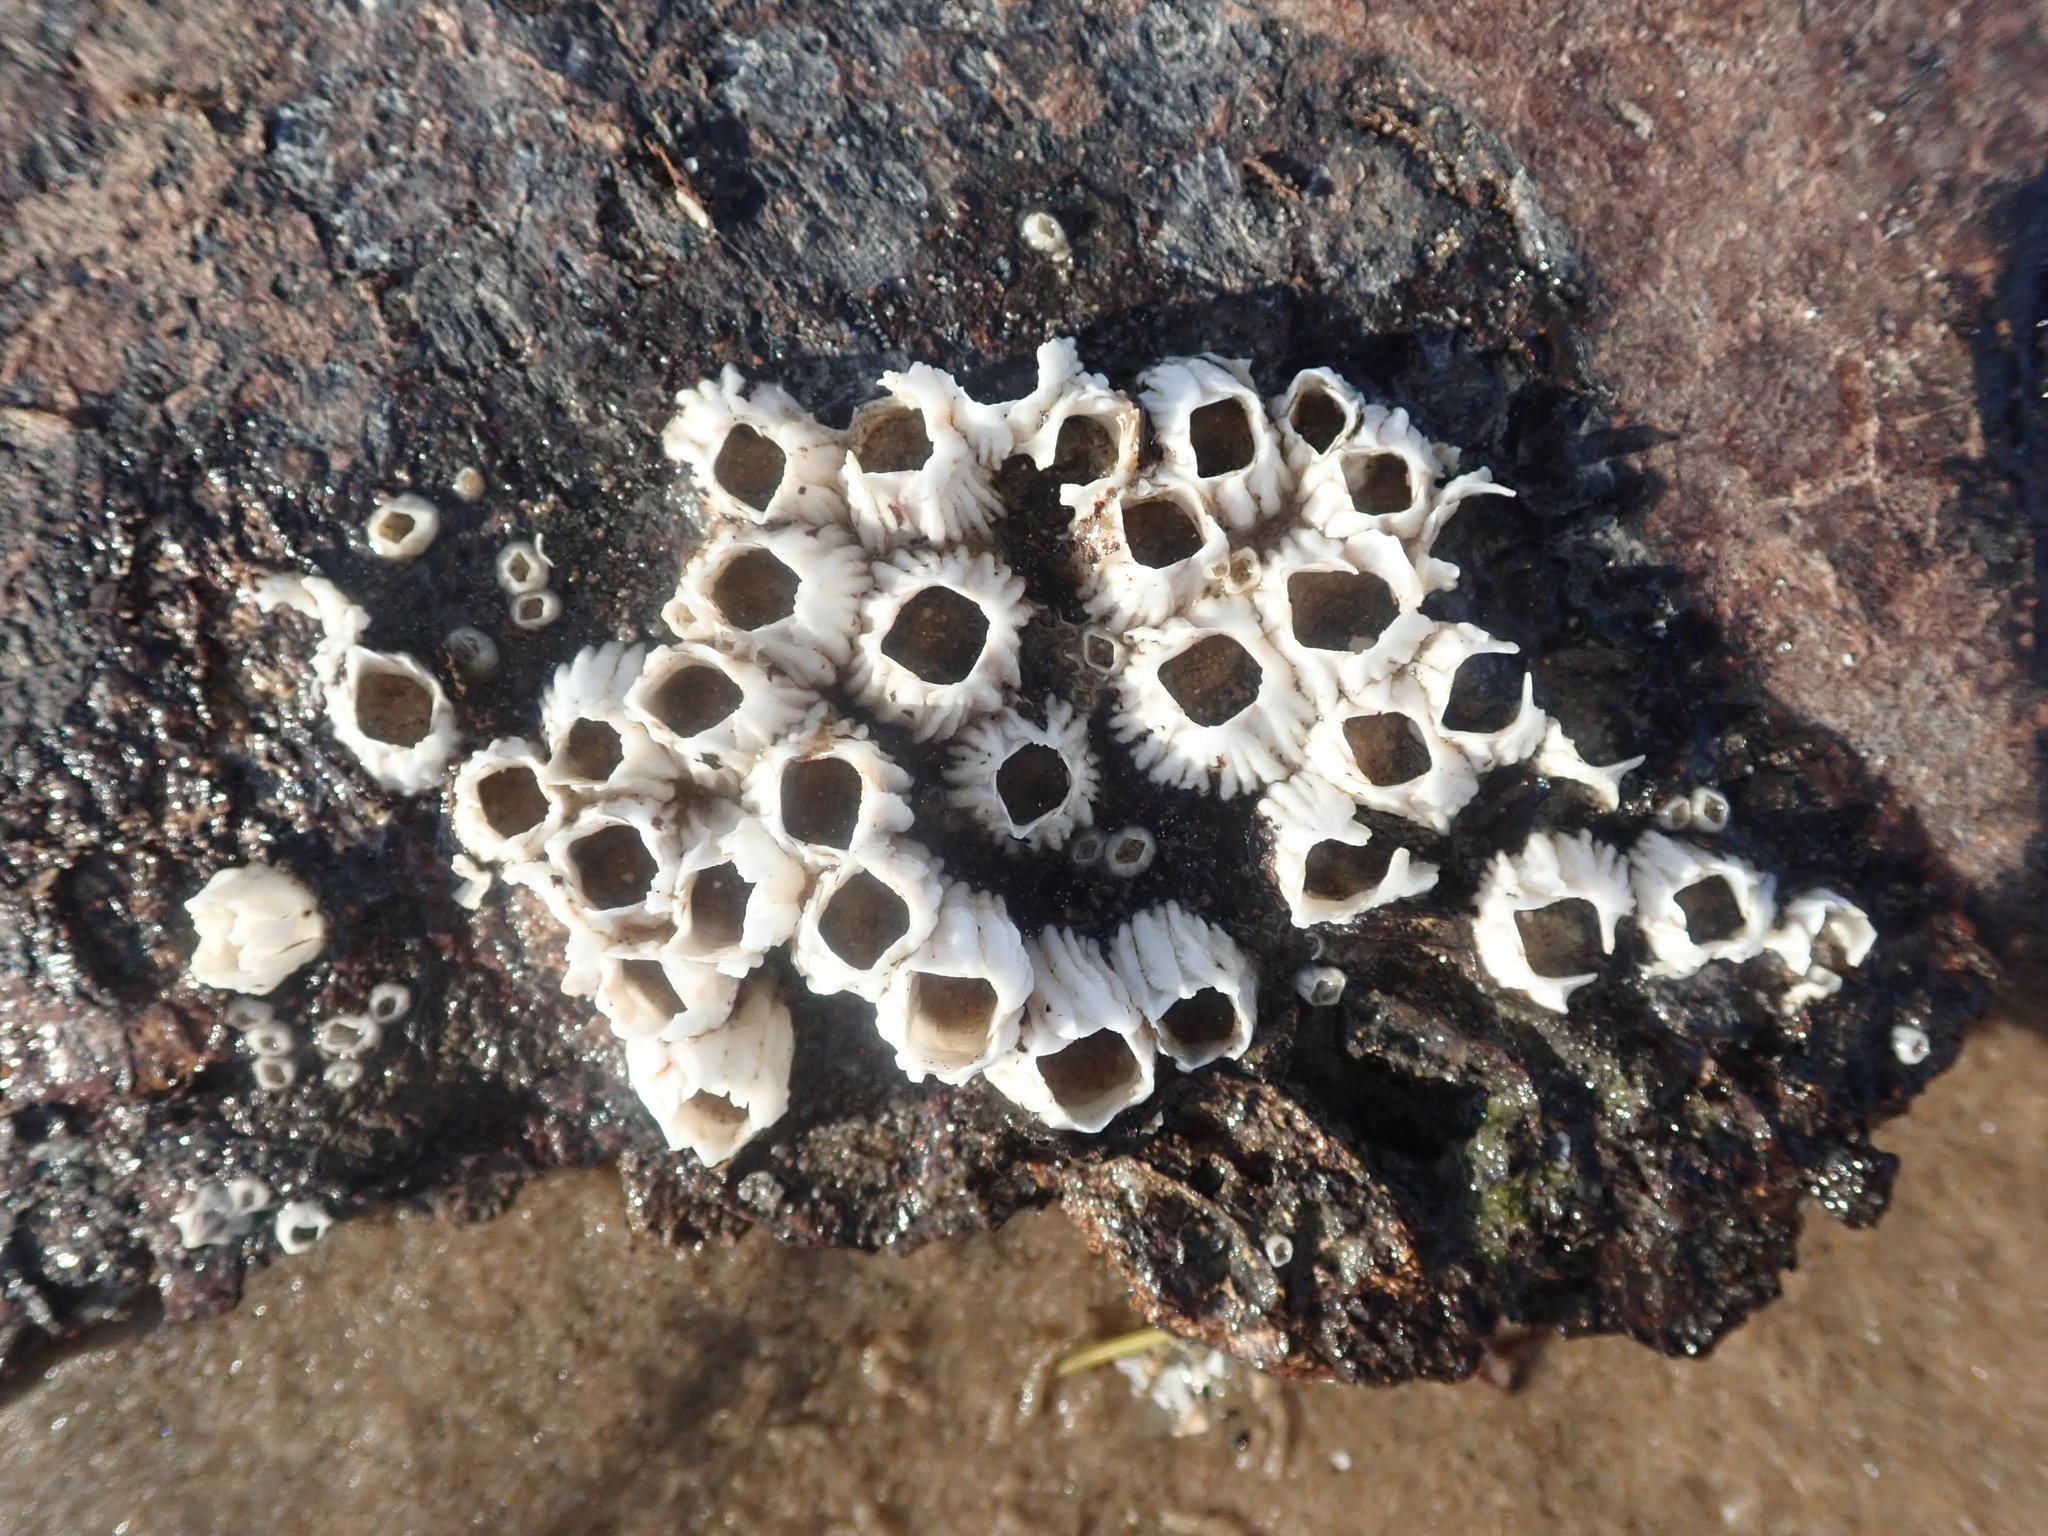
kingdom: Animalia
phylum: Arthropoda
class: Maxillopoda
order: Sessilia
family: Archaeobalanidae
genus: Semibalanus
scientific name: Semibalanus balanoides
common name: Acorn barnacle
